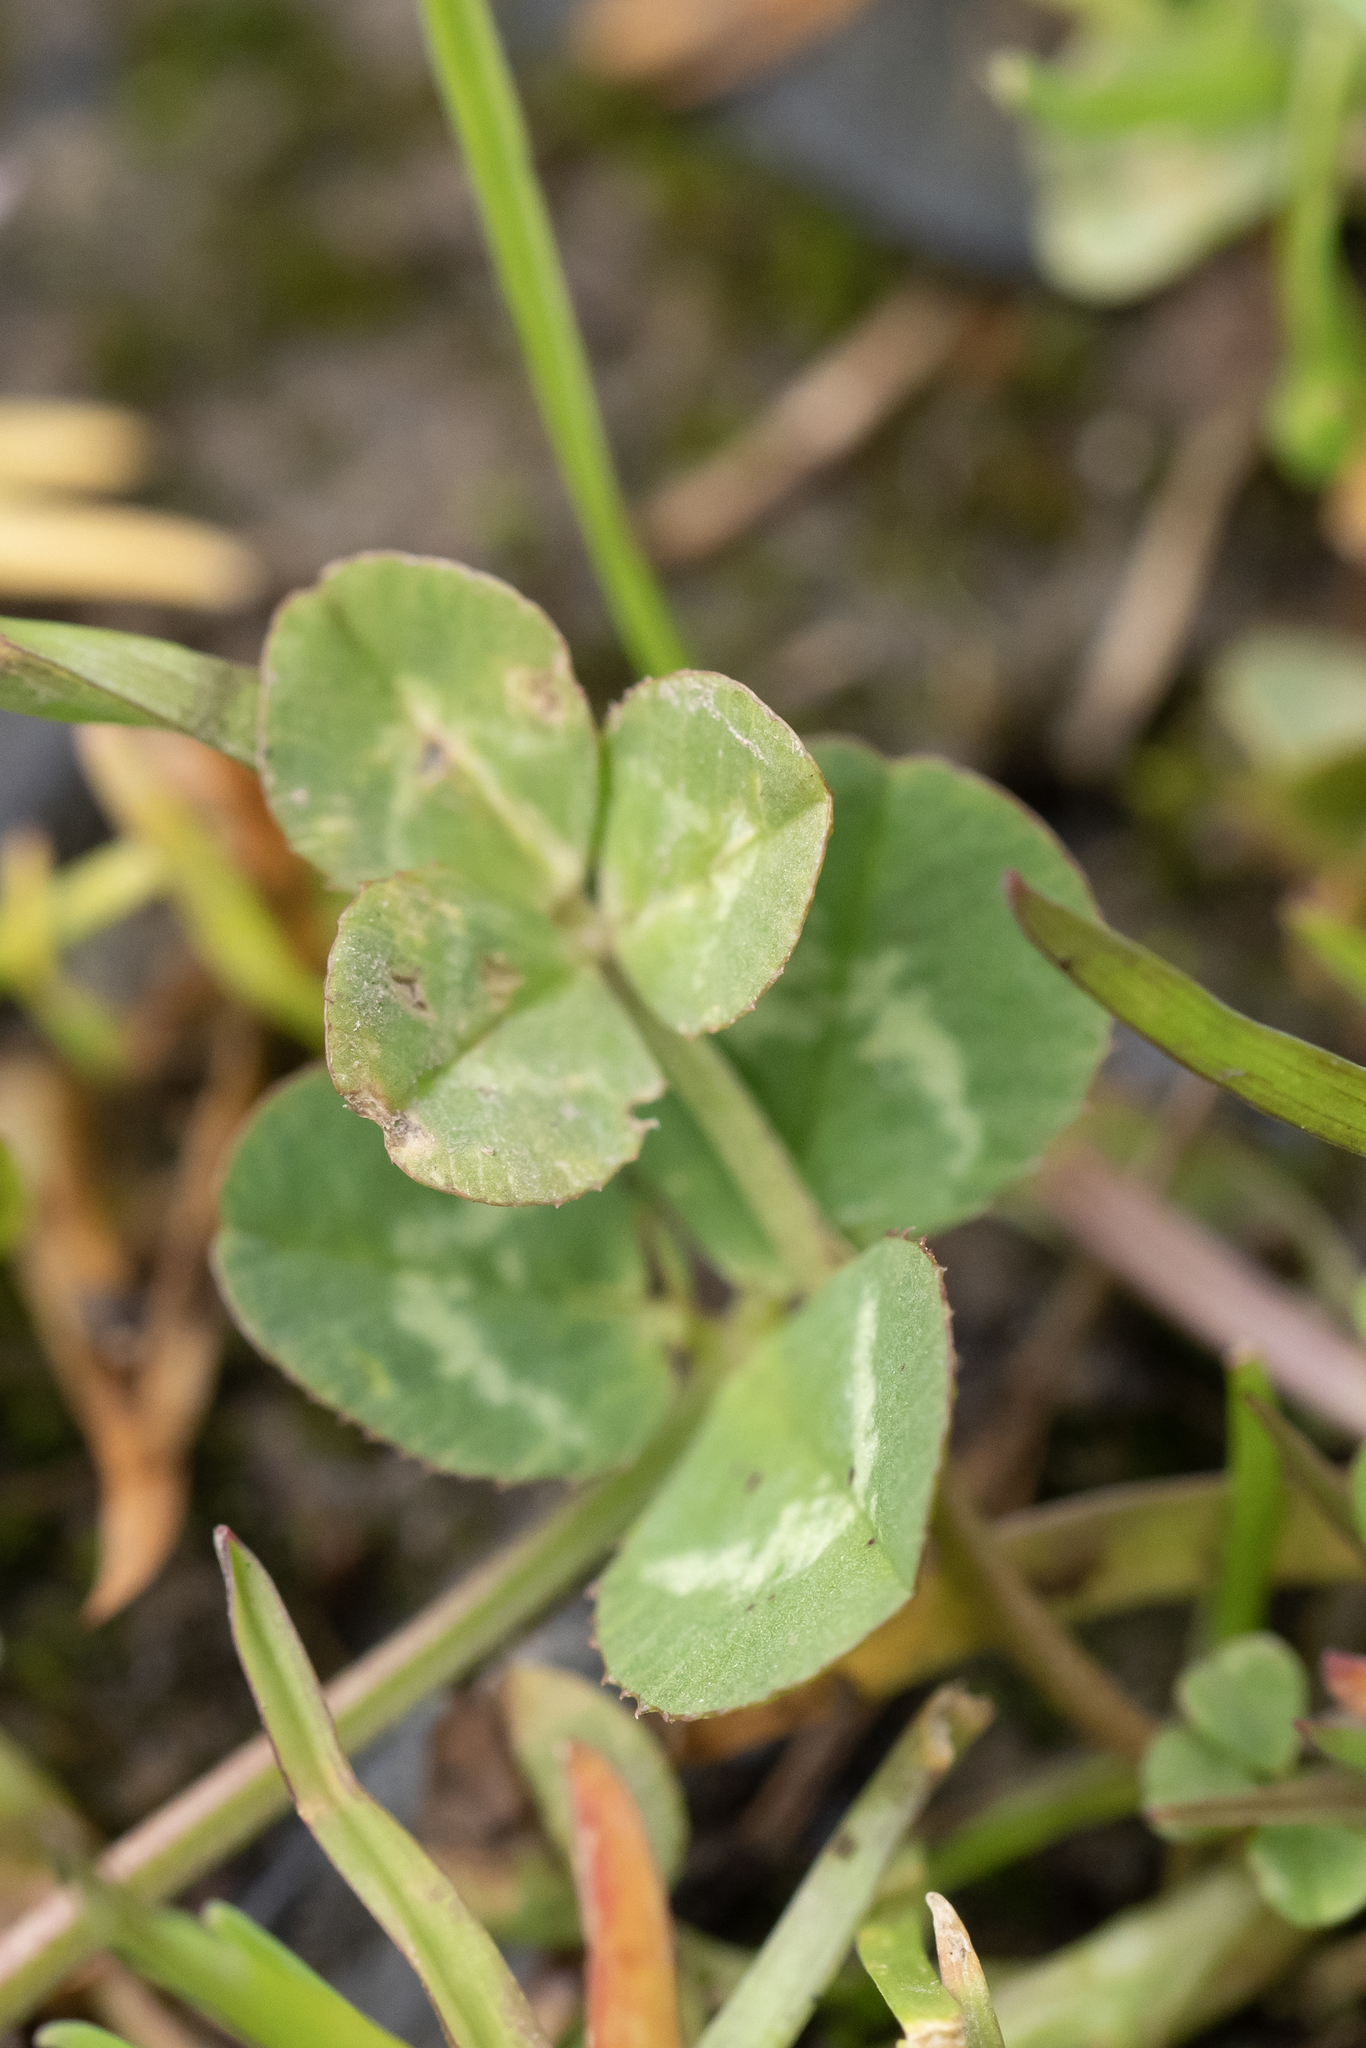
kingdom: Plantae
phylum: Tracheophyta
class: Magnoliopsida
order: Fabales
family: Fabaceae
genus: Trifolium
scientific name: Trifolium repens
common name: White clover
